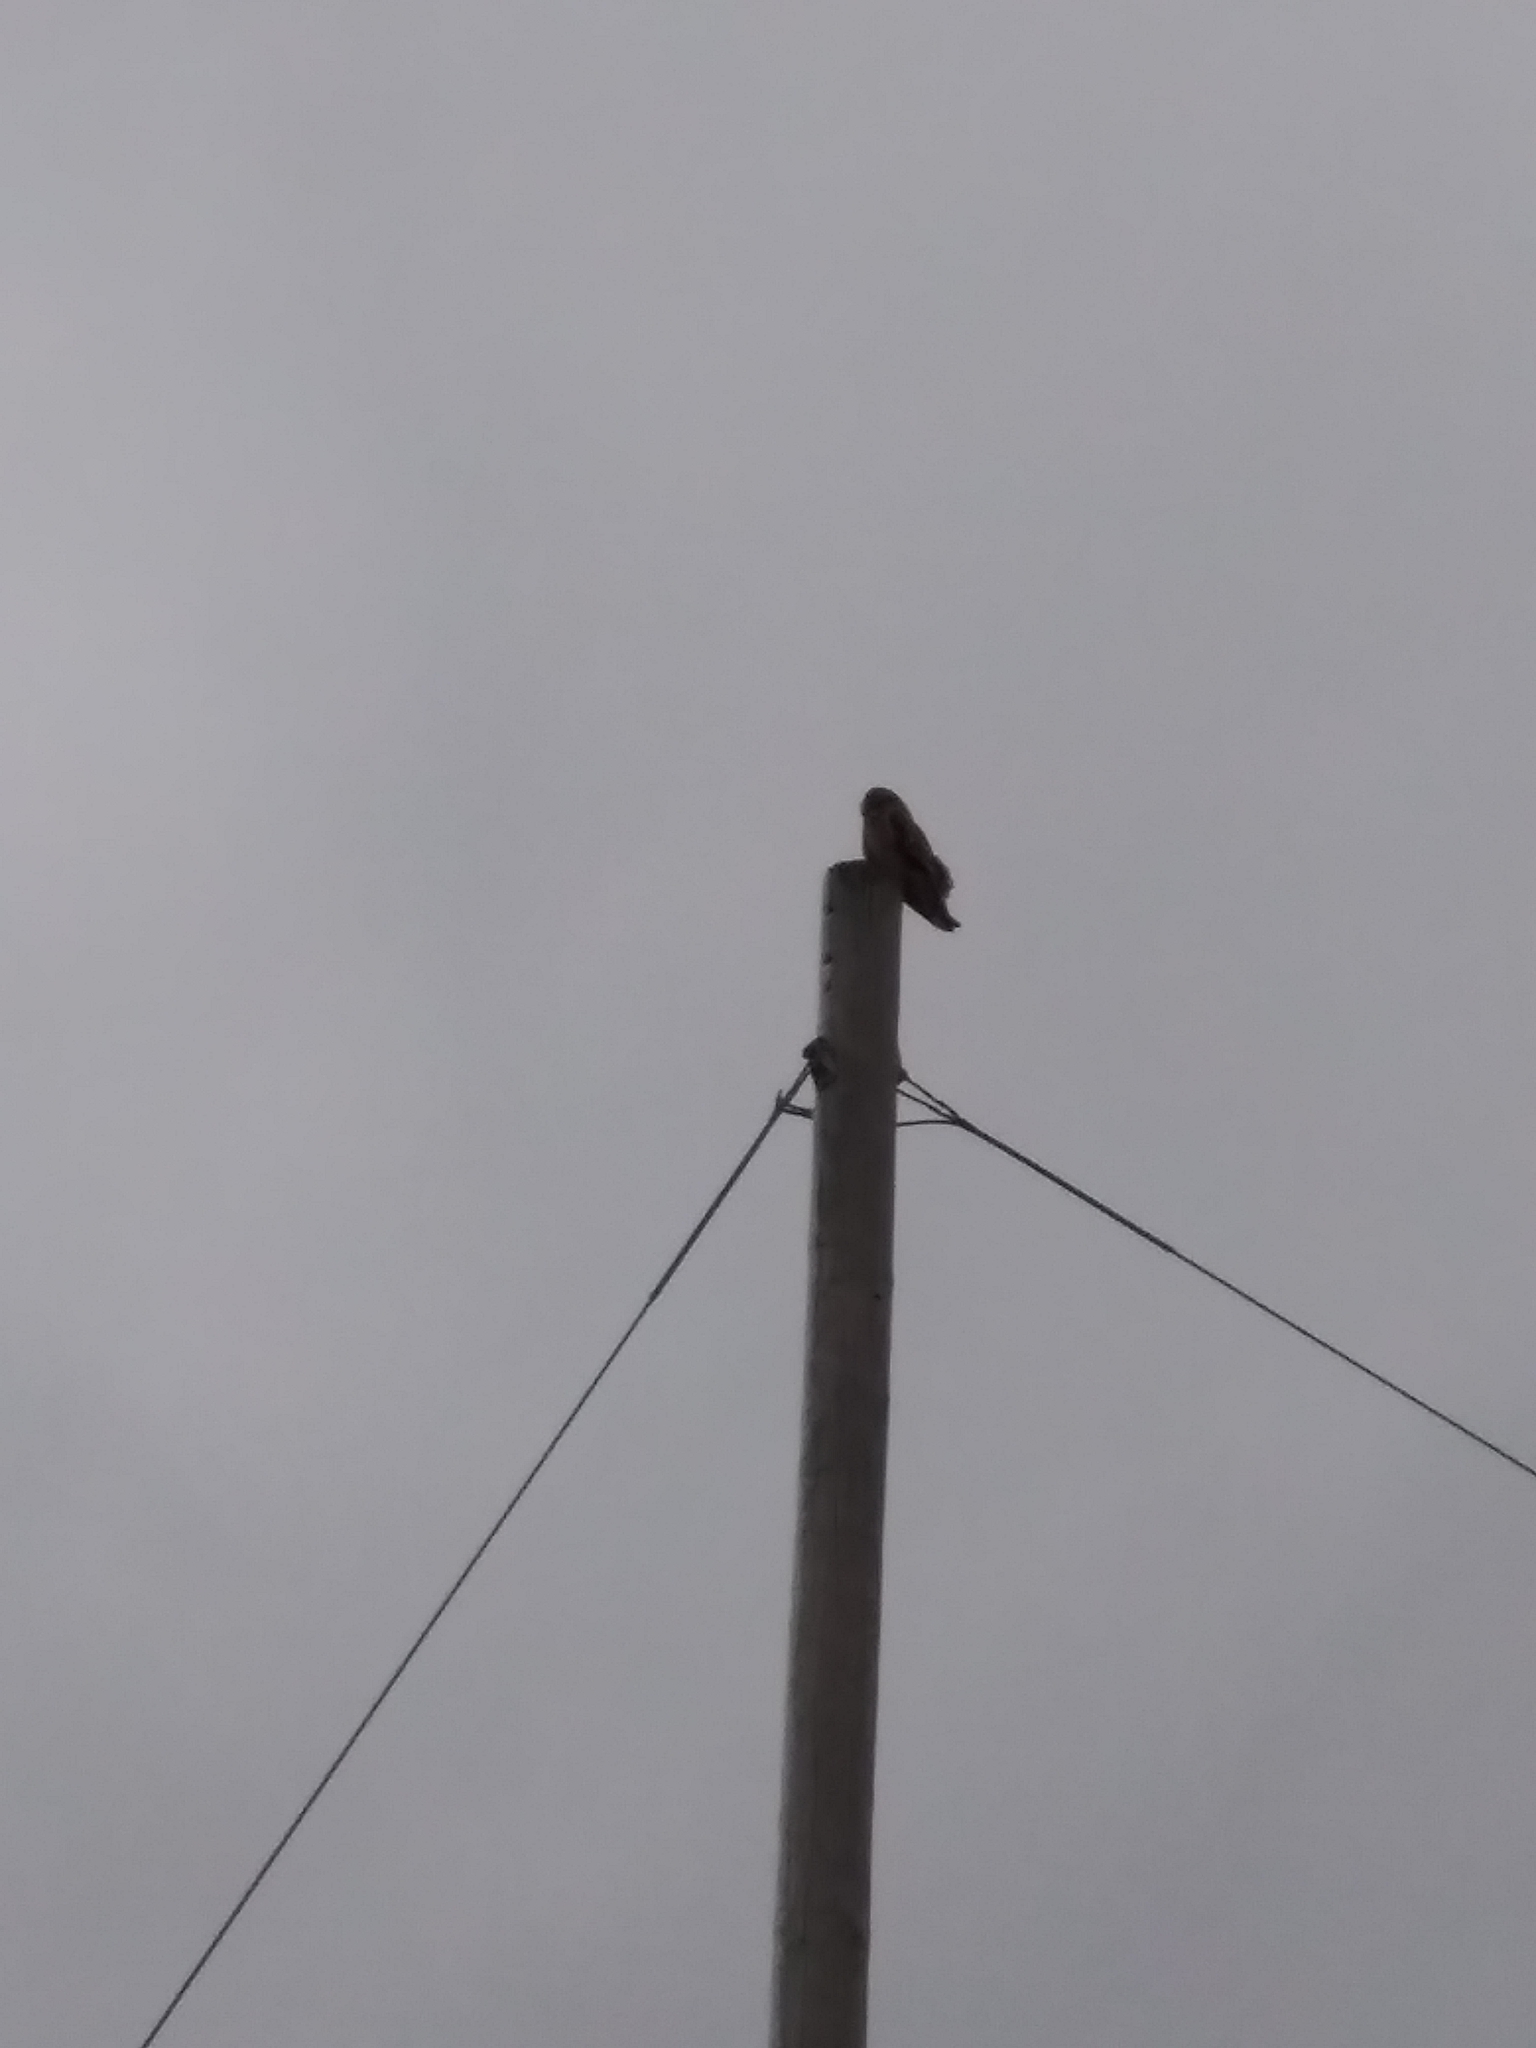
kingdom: Animalia
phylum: Chordata
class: Aves
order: Strigiformes
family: Strigidae
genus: Asio
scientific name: Asio flammeus
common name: Short-eared owl
